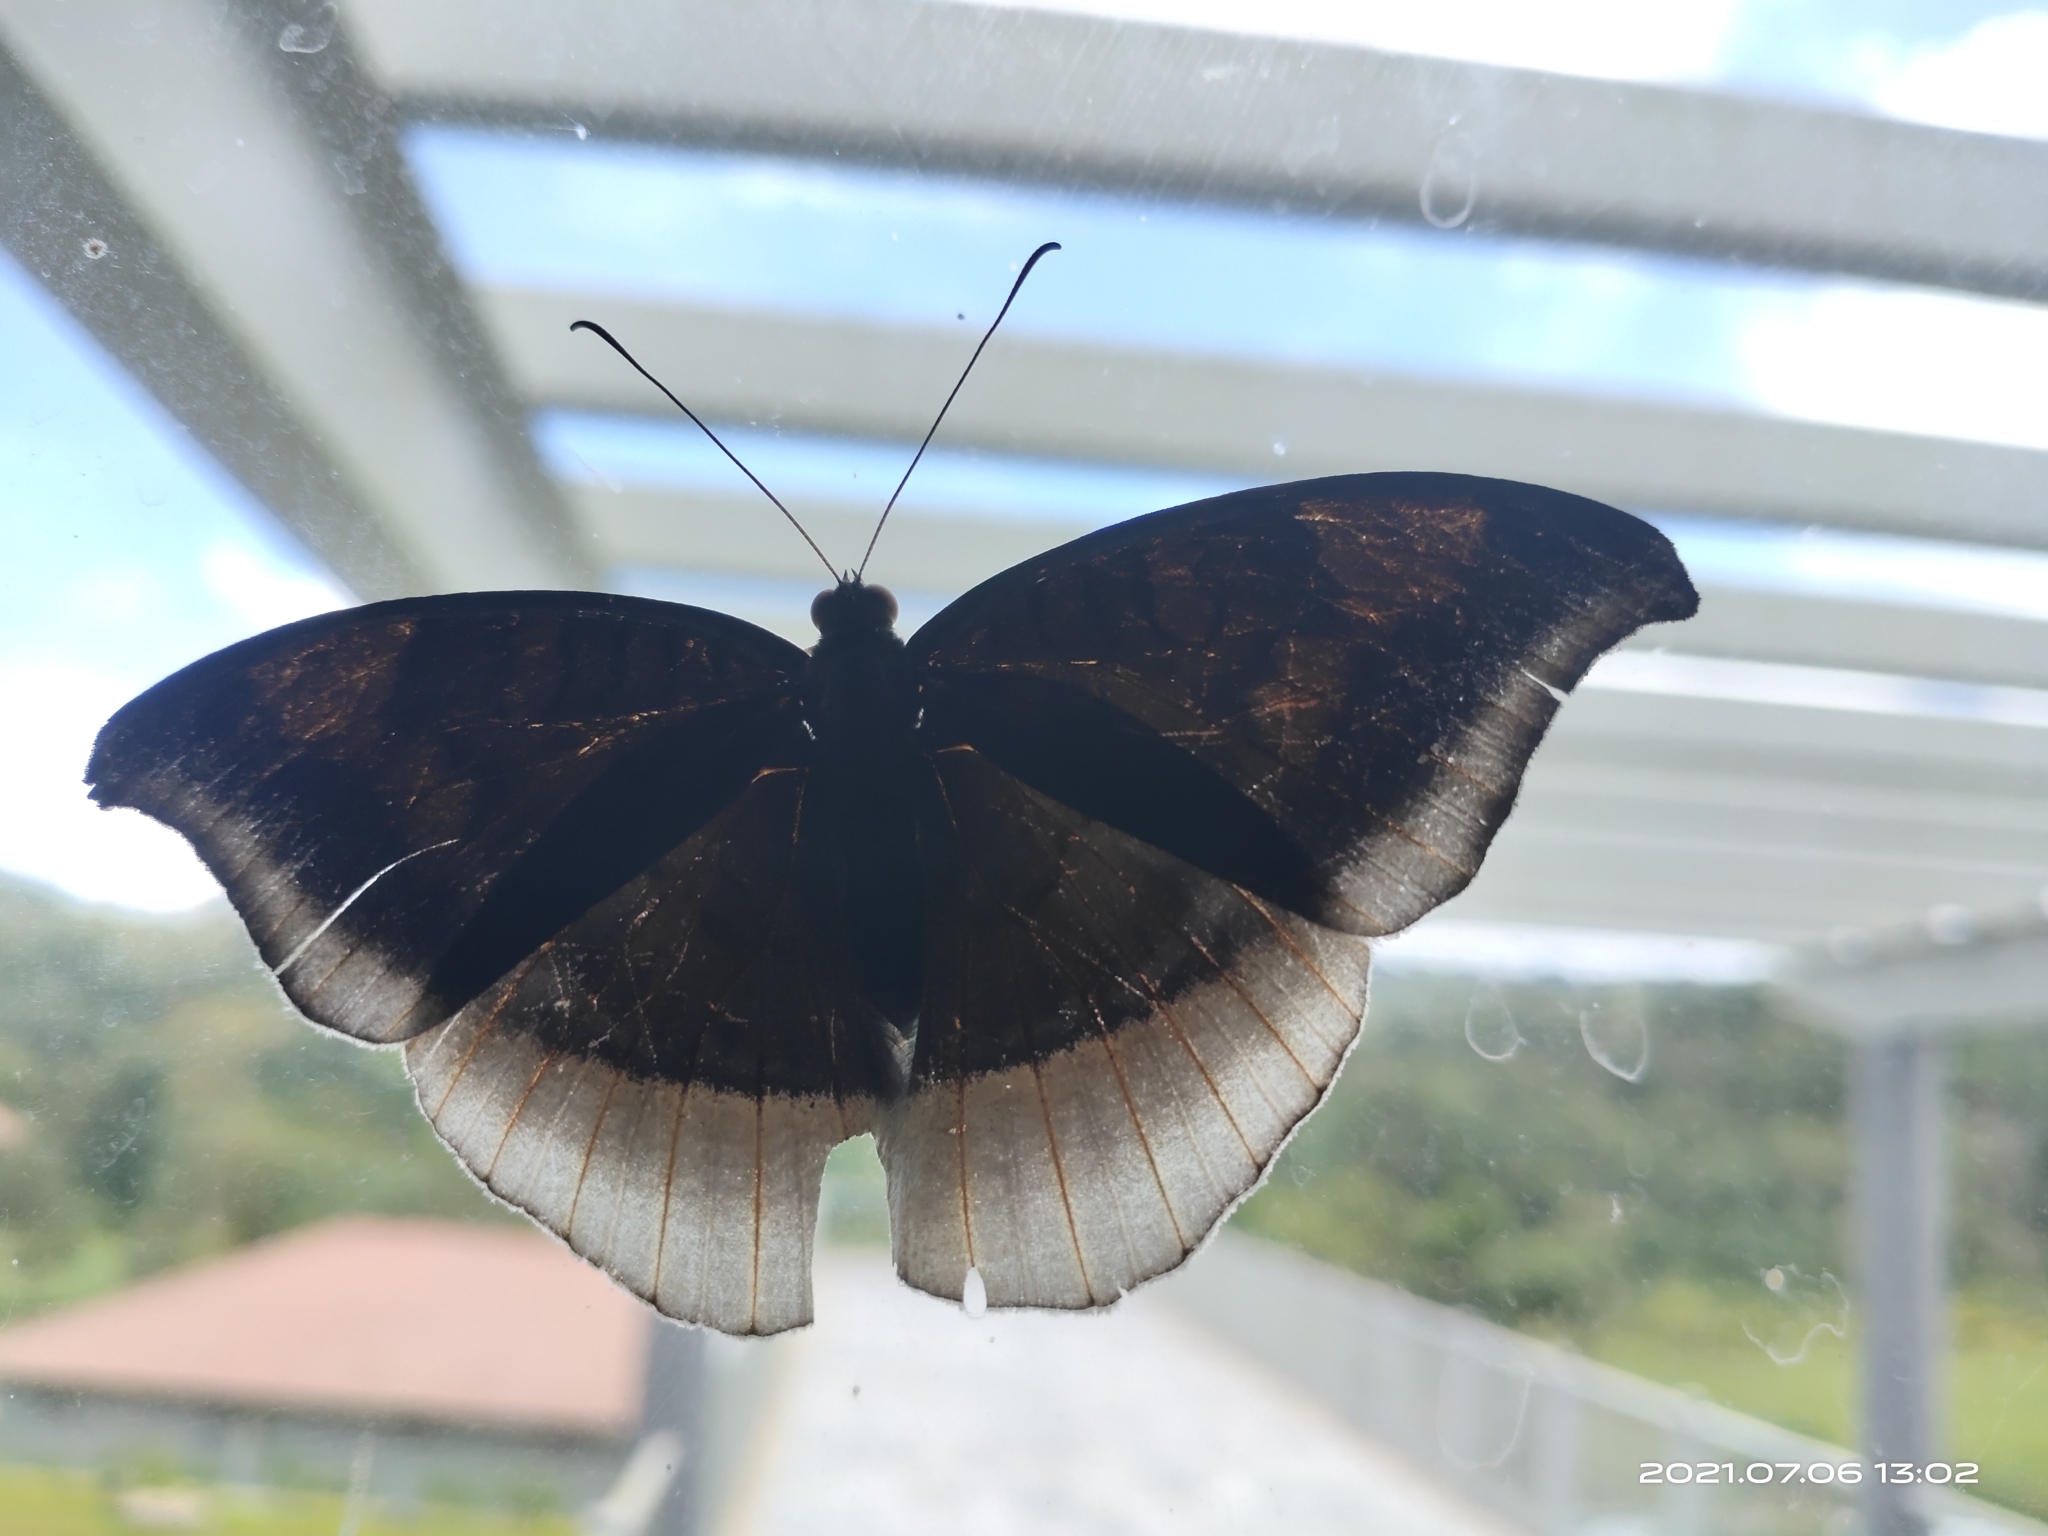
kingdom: Animalia
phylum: Arthropoda
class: Insecta
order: Lepidoptera
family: Nymphalidae
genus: Tanaecia
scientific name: Tanaecia lepidea
